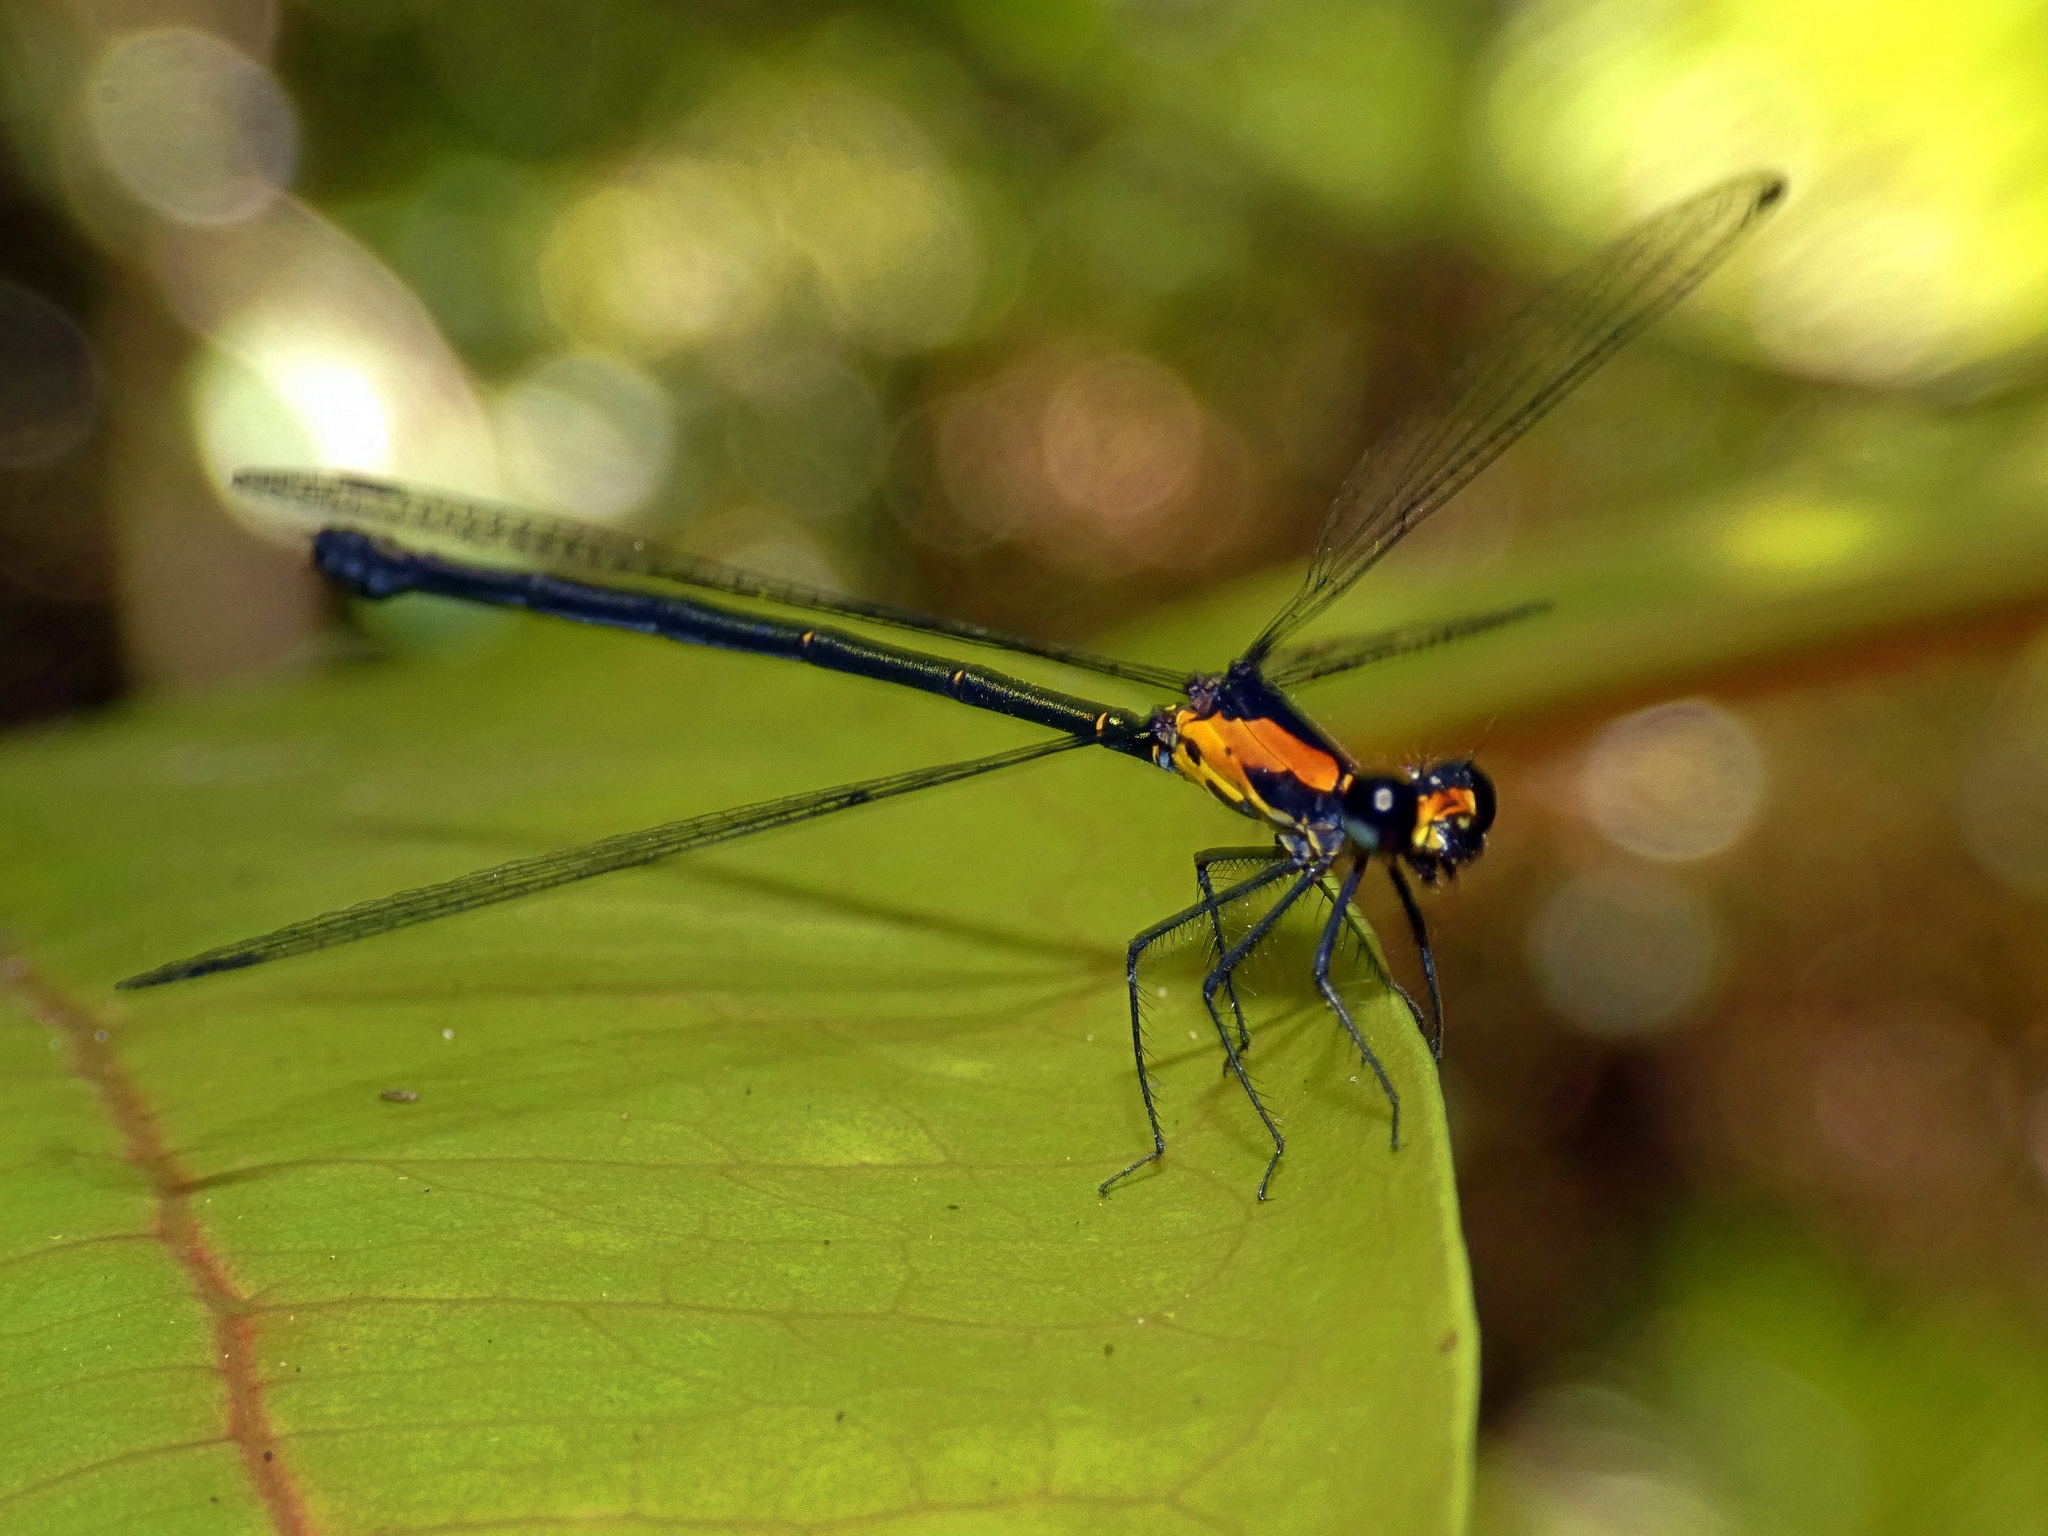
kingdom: Animalia
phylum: Arthropoda
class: Insecta
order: Odonata
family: Argiolestidae
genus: Austroargiolestes
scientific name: Austroargiolestes aureus
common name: Tropical flatwing
